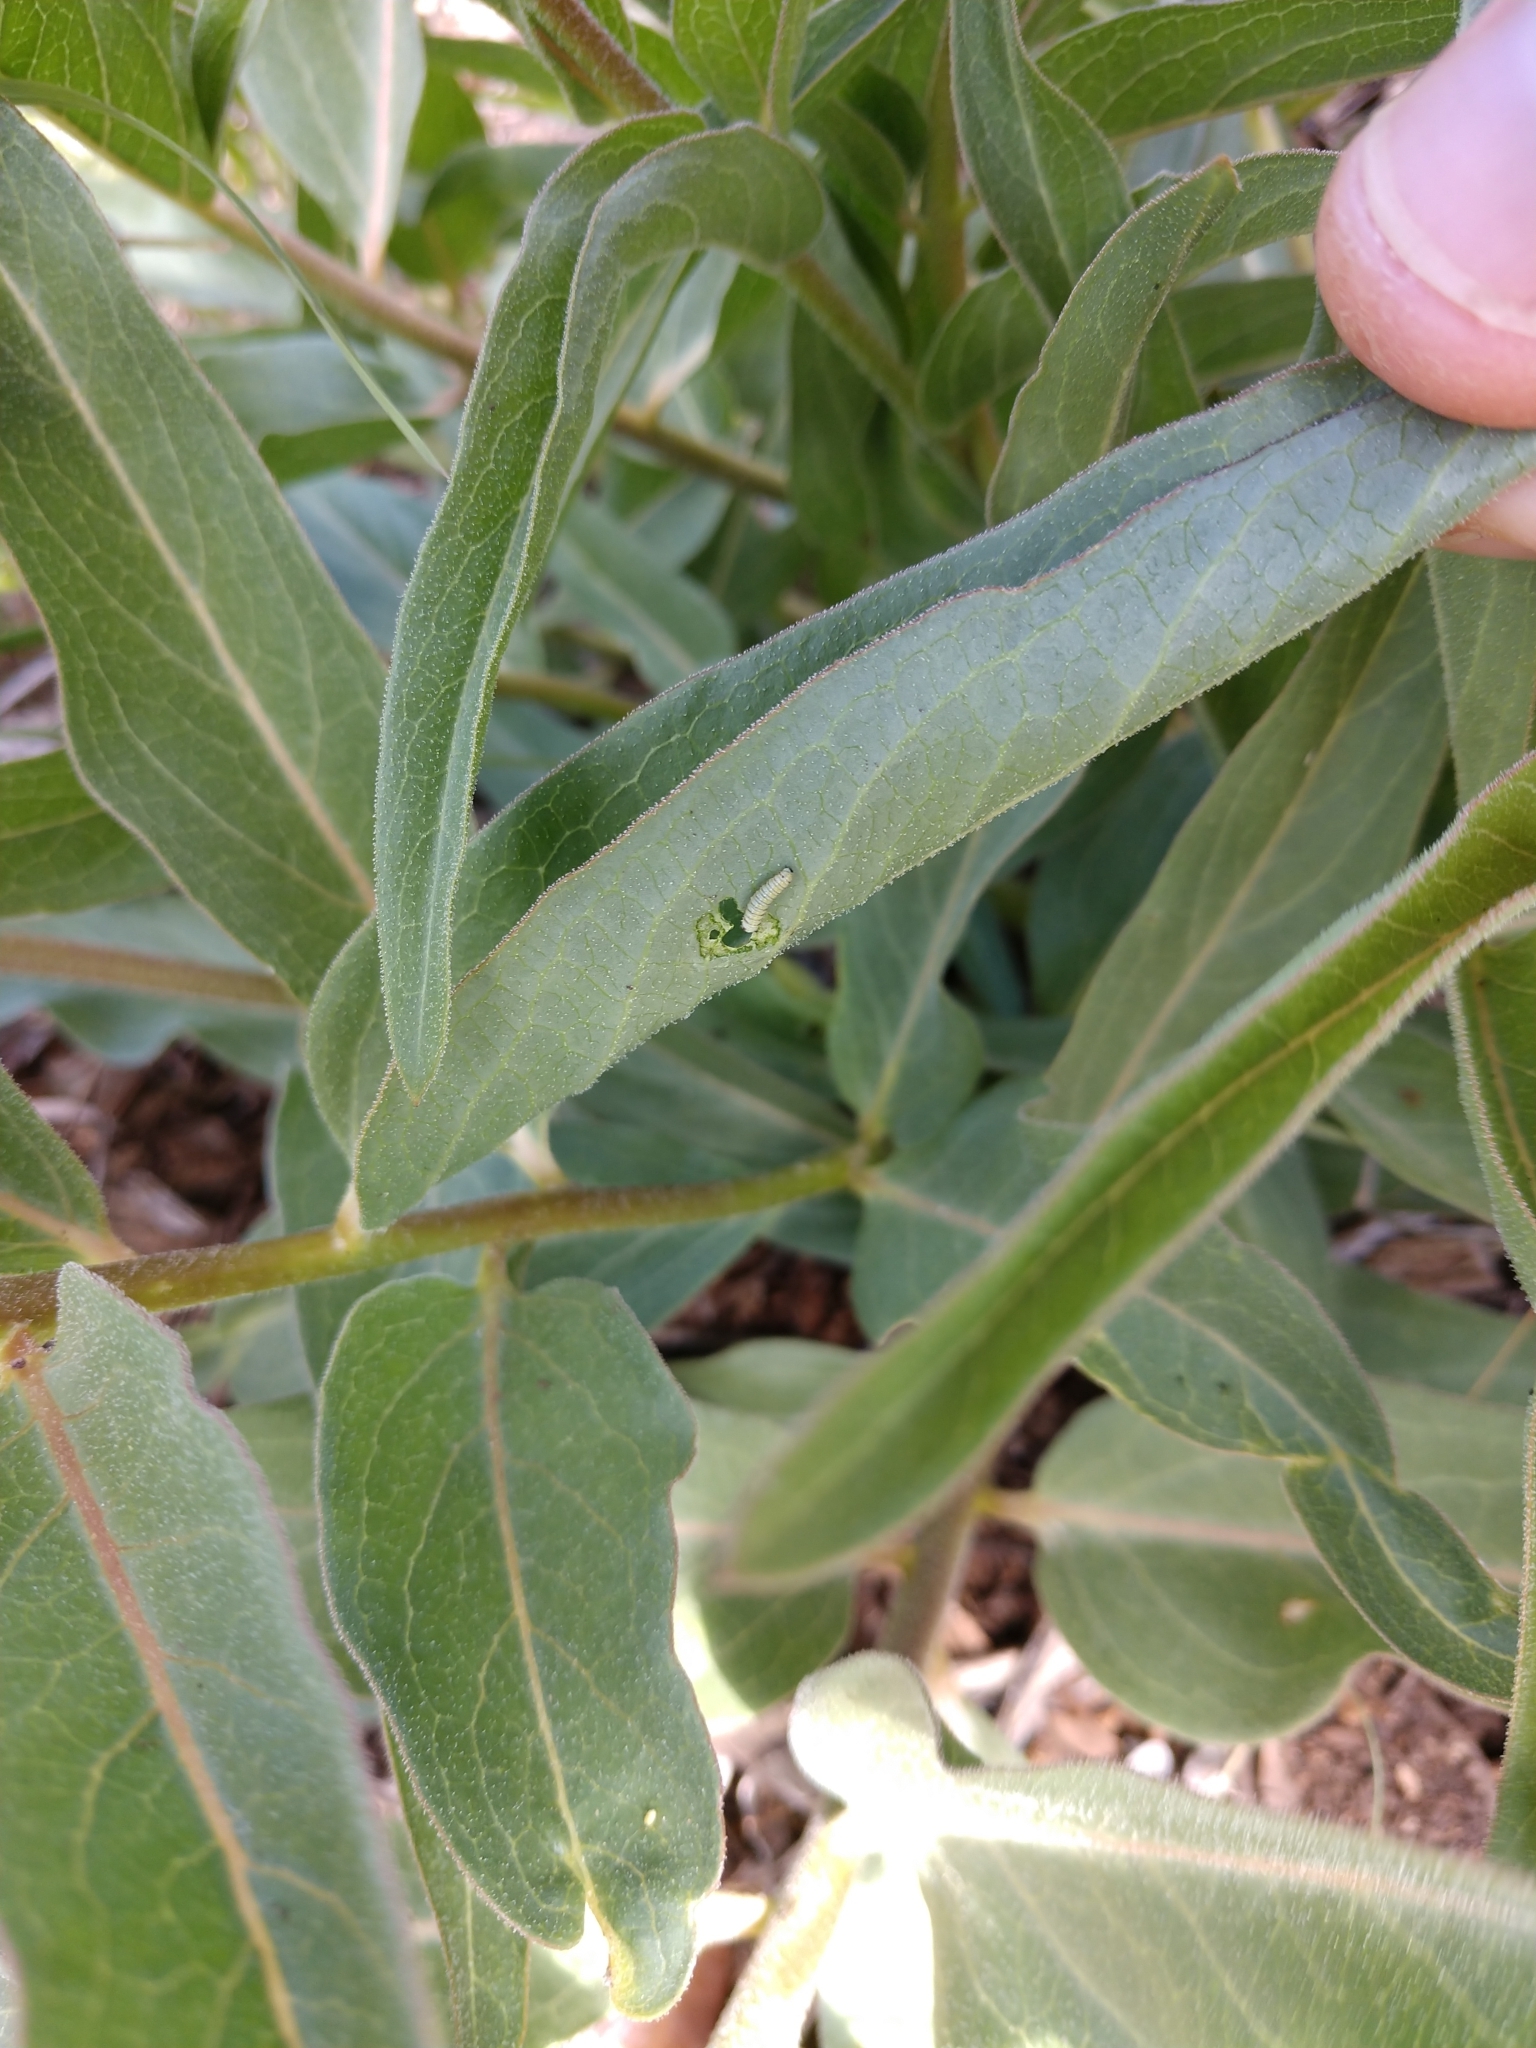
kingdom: Animalia
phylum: Arthropoda
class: Insecta
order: Lepidoptera
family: Nymphalidae
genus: Danaus
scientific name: Danaus plexippus
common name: Monarch
